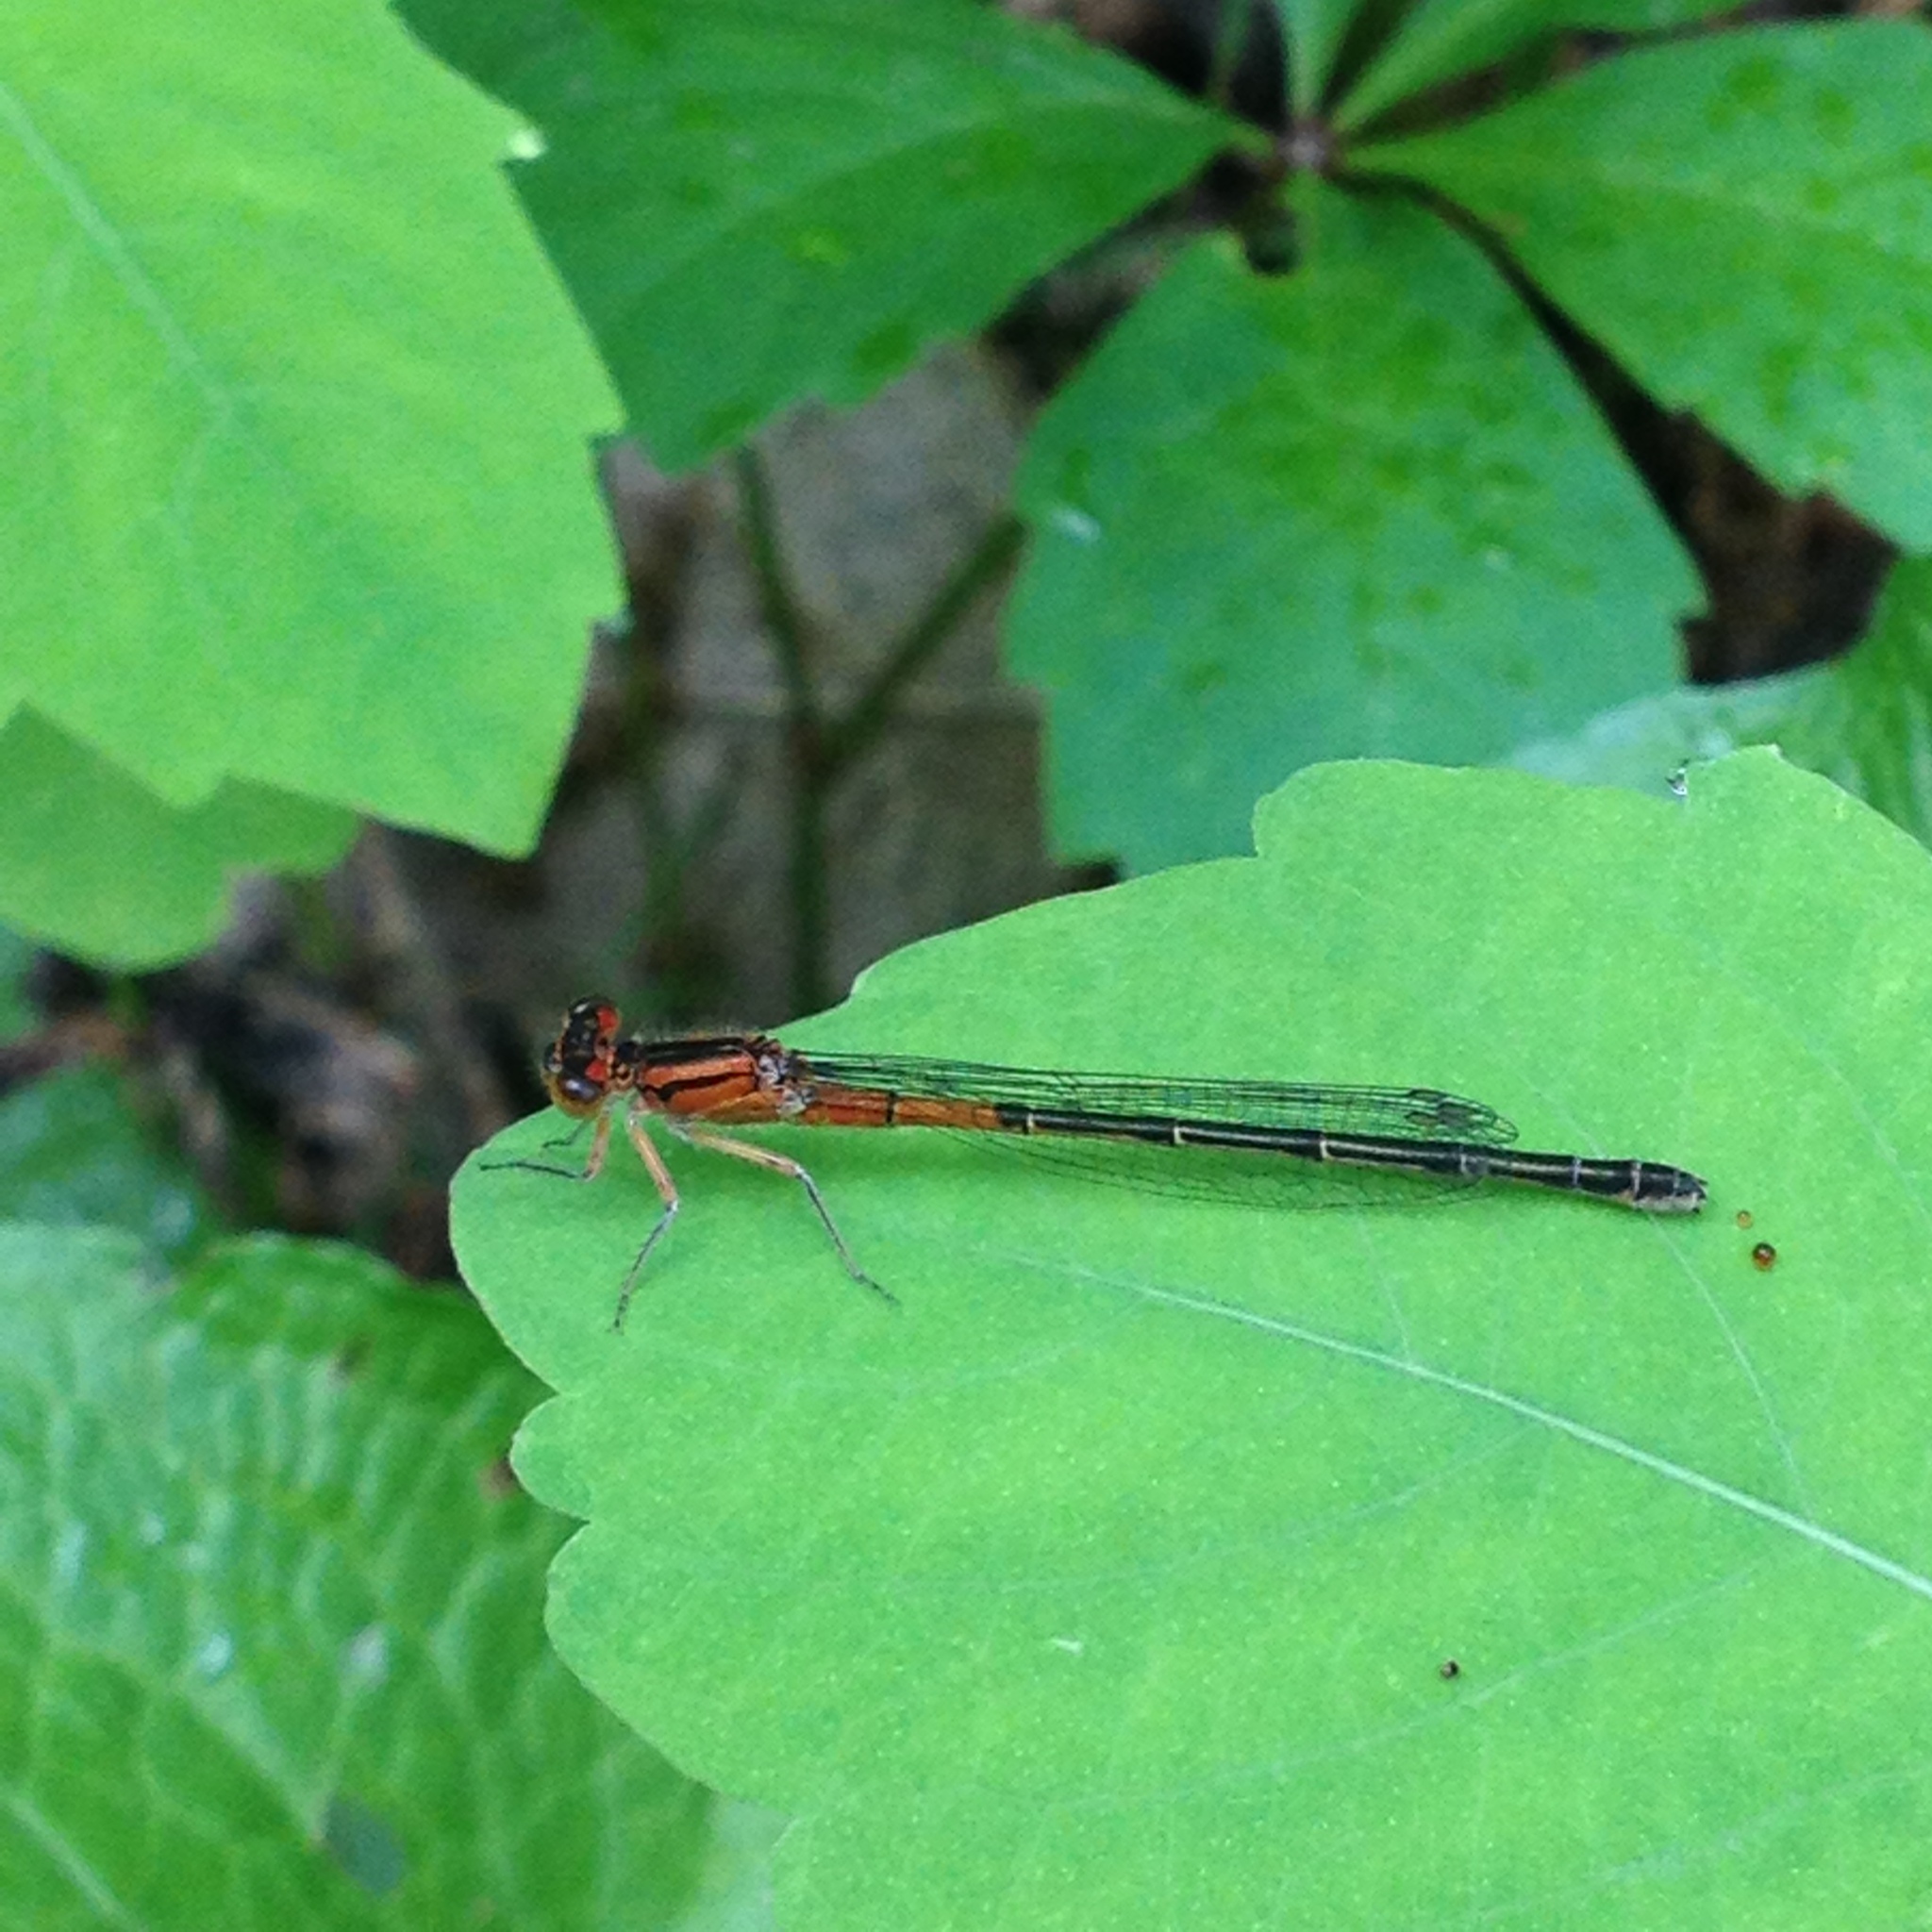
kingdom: Animalia
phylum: Arthropoda
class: Insecta
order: Odonata
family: Coenagrionidae
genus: Ischnura
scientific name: Ischnura verticalis
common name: Eastern forktail
